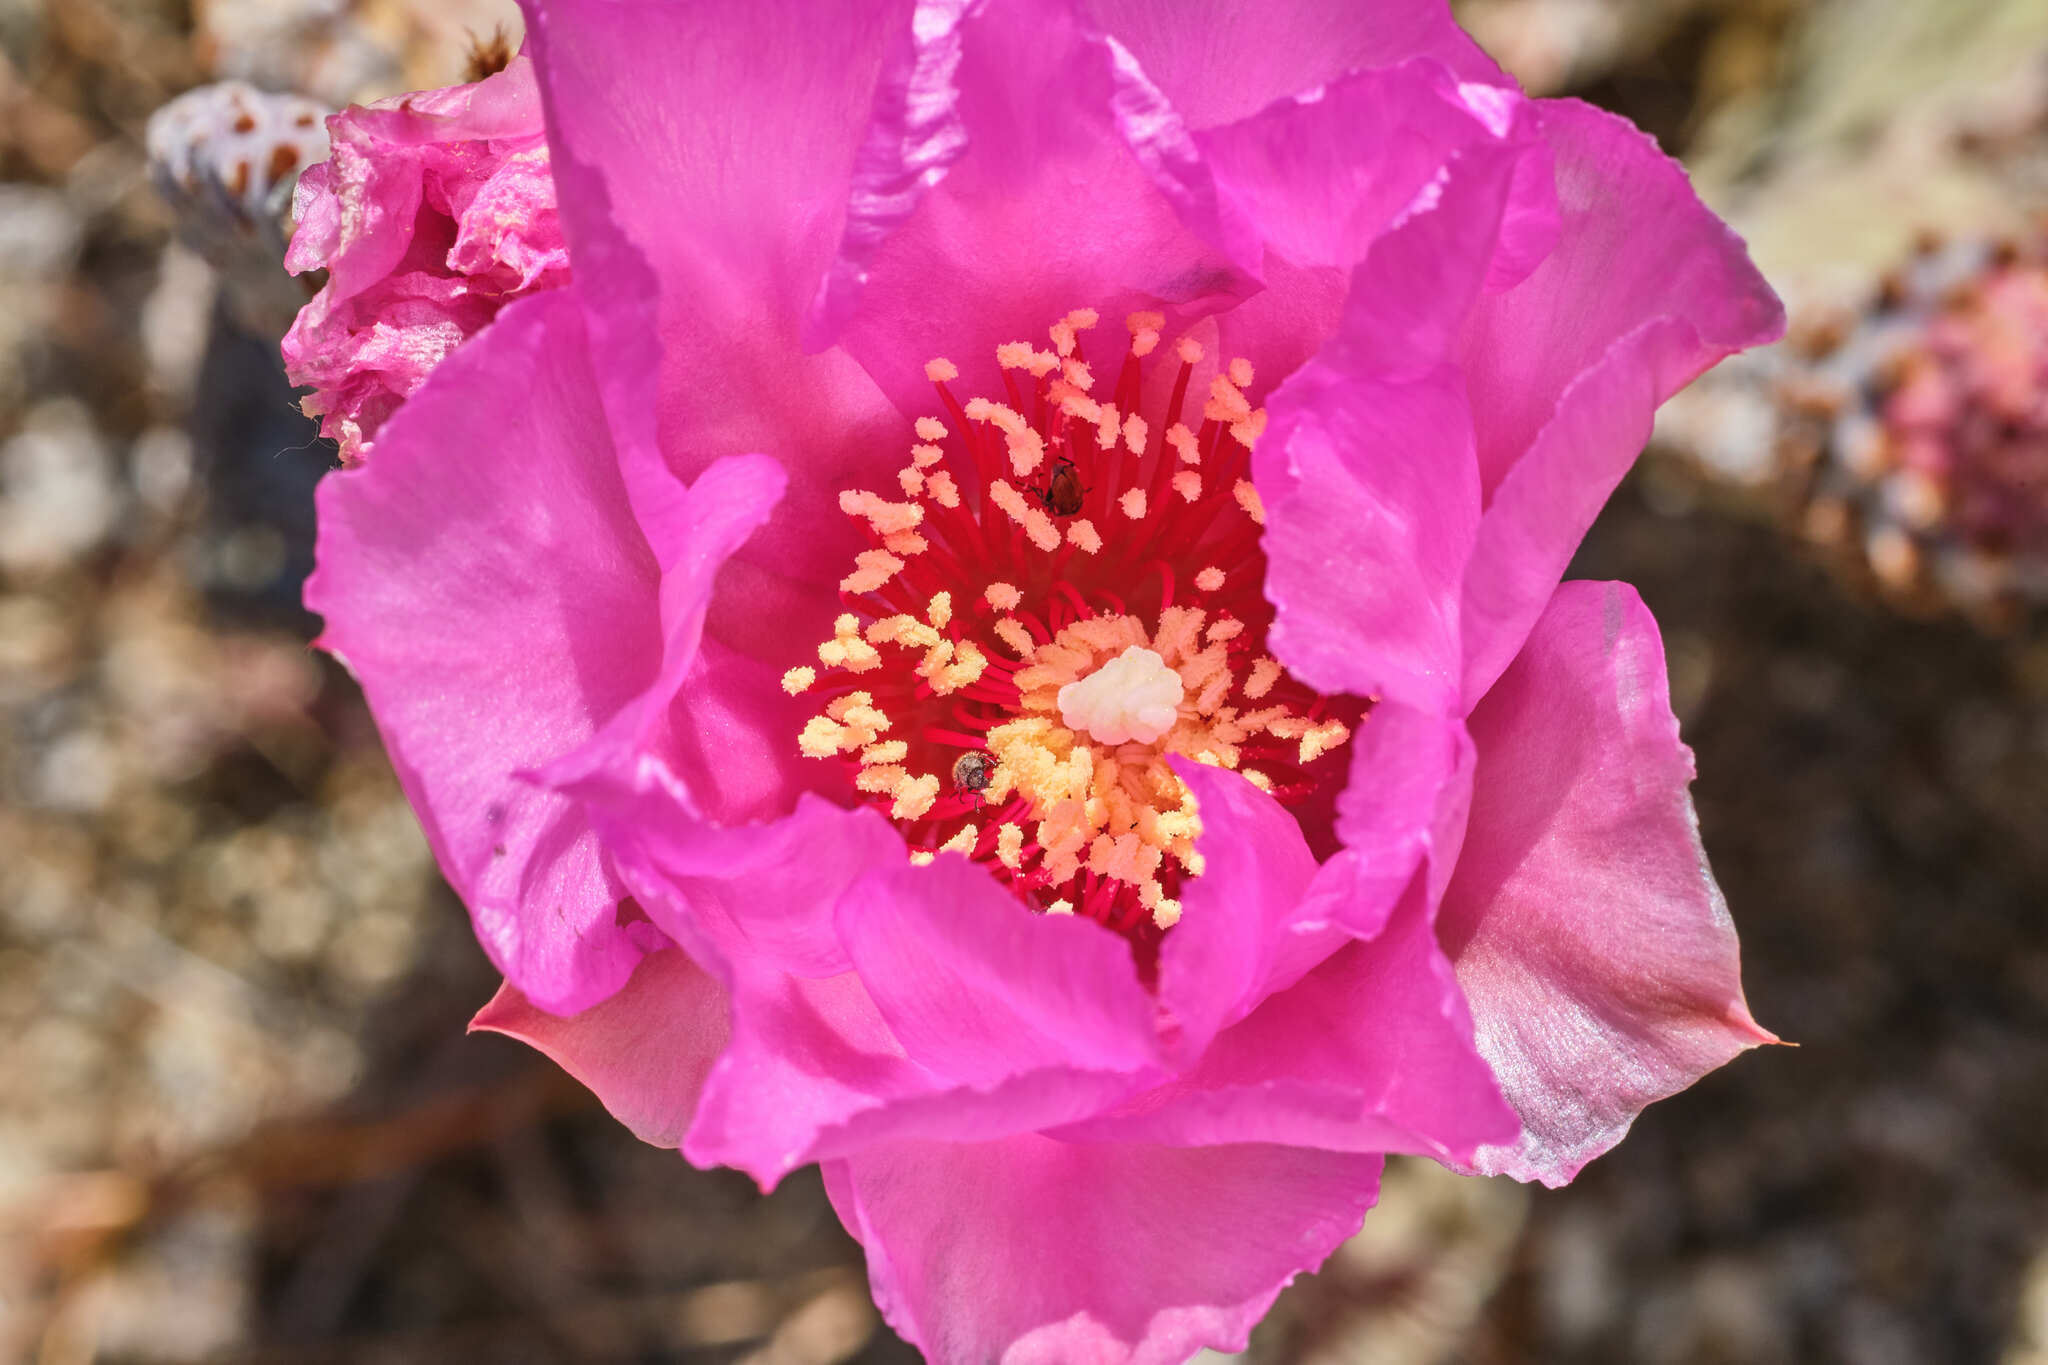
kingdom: Plantae
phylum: Tracheophyta
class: Magnoliopsida
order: Caryophyllales
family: Cactaceae
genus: Opuntia
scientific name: Opuntia basilaris
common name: Beavertail prickly-pear
